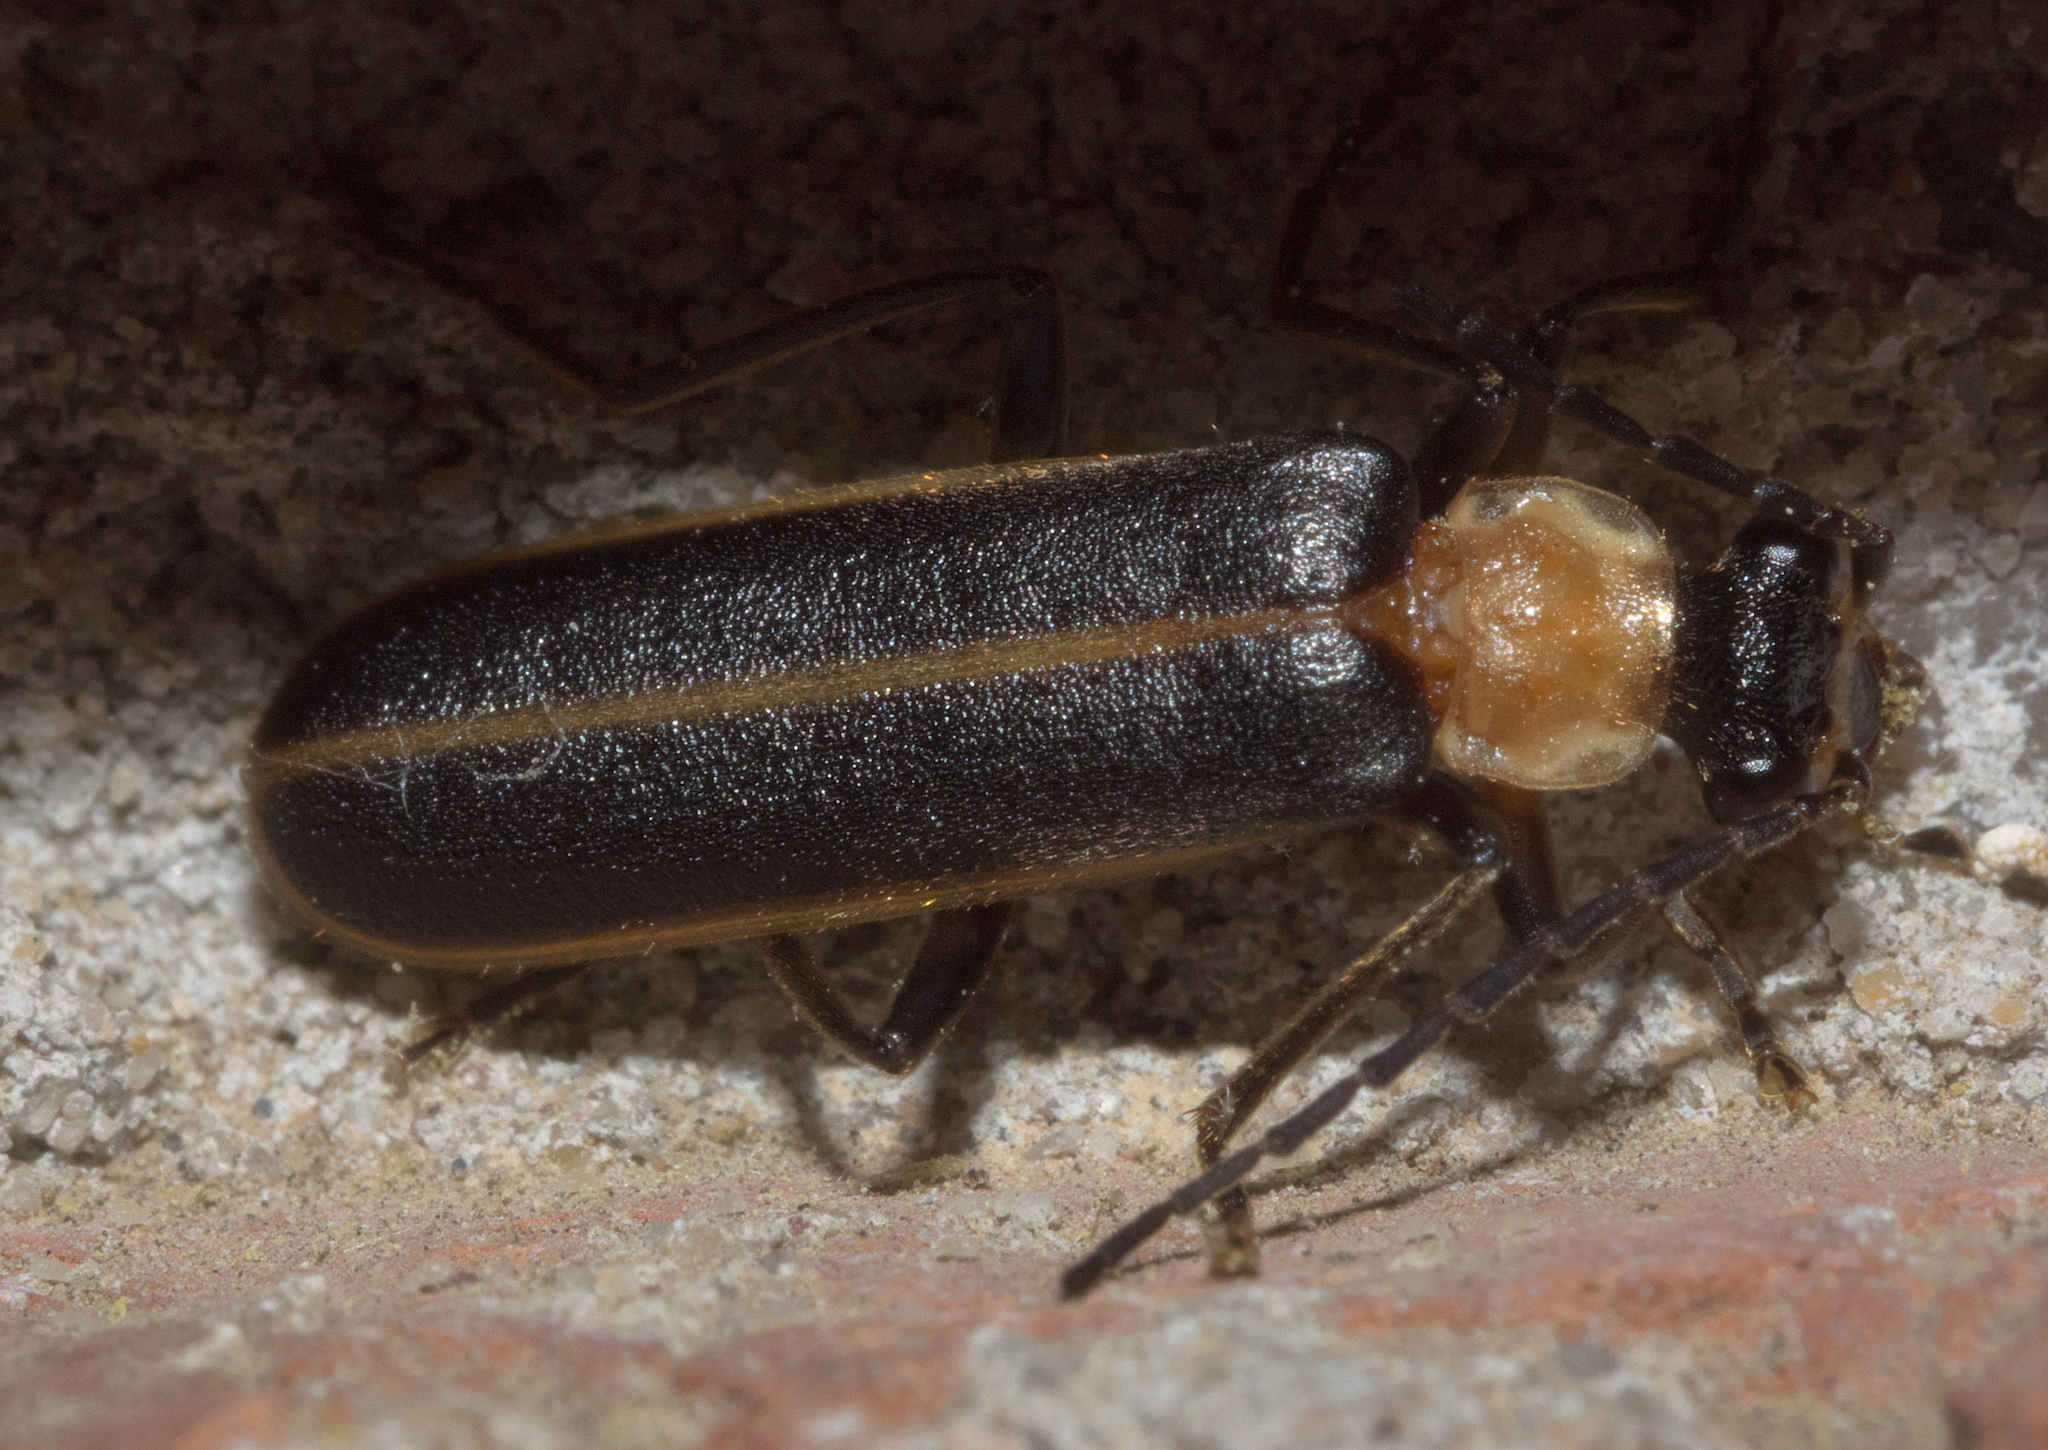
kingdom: Animalia
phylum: Arthropoda
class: Insecta
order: Coleoptera
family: Cantharidae
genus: Podabrus
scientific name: Podabrus flavicollis
